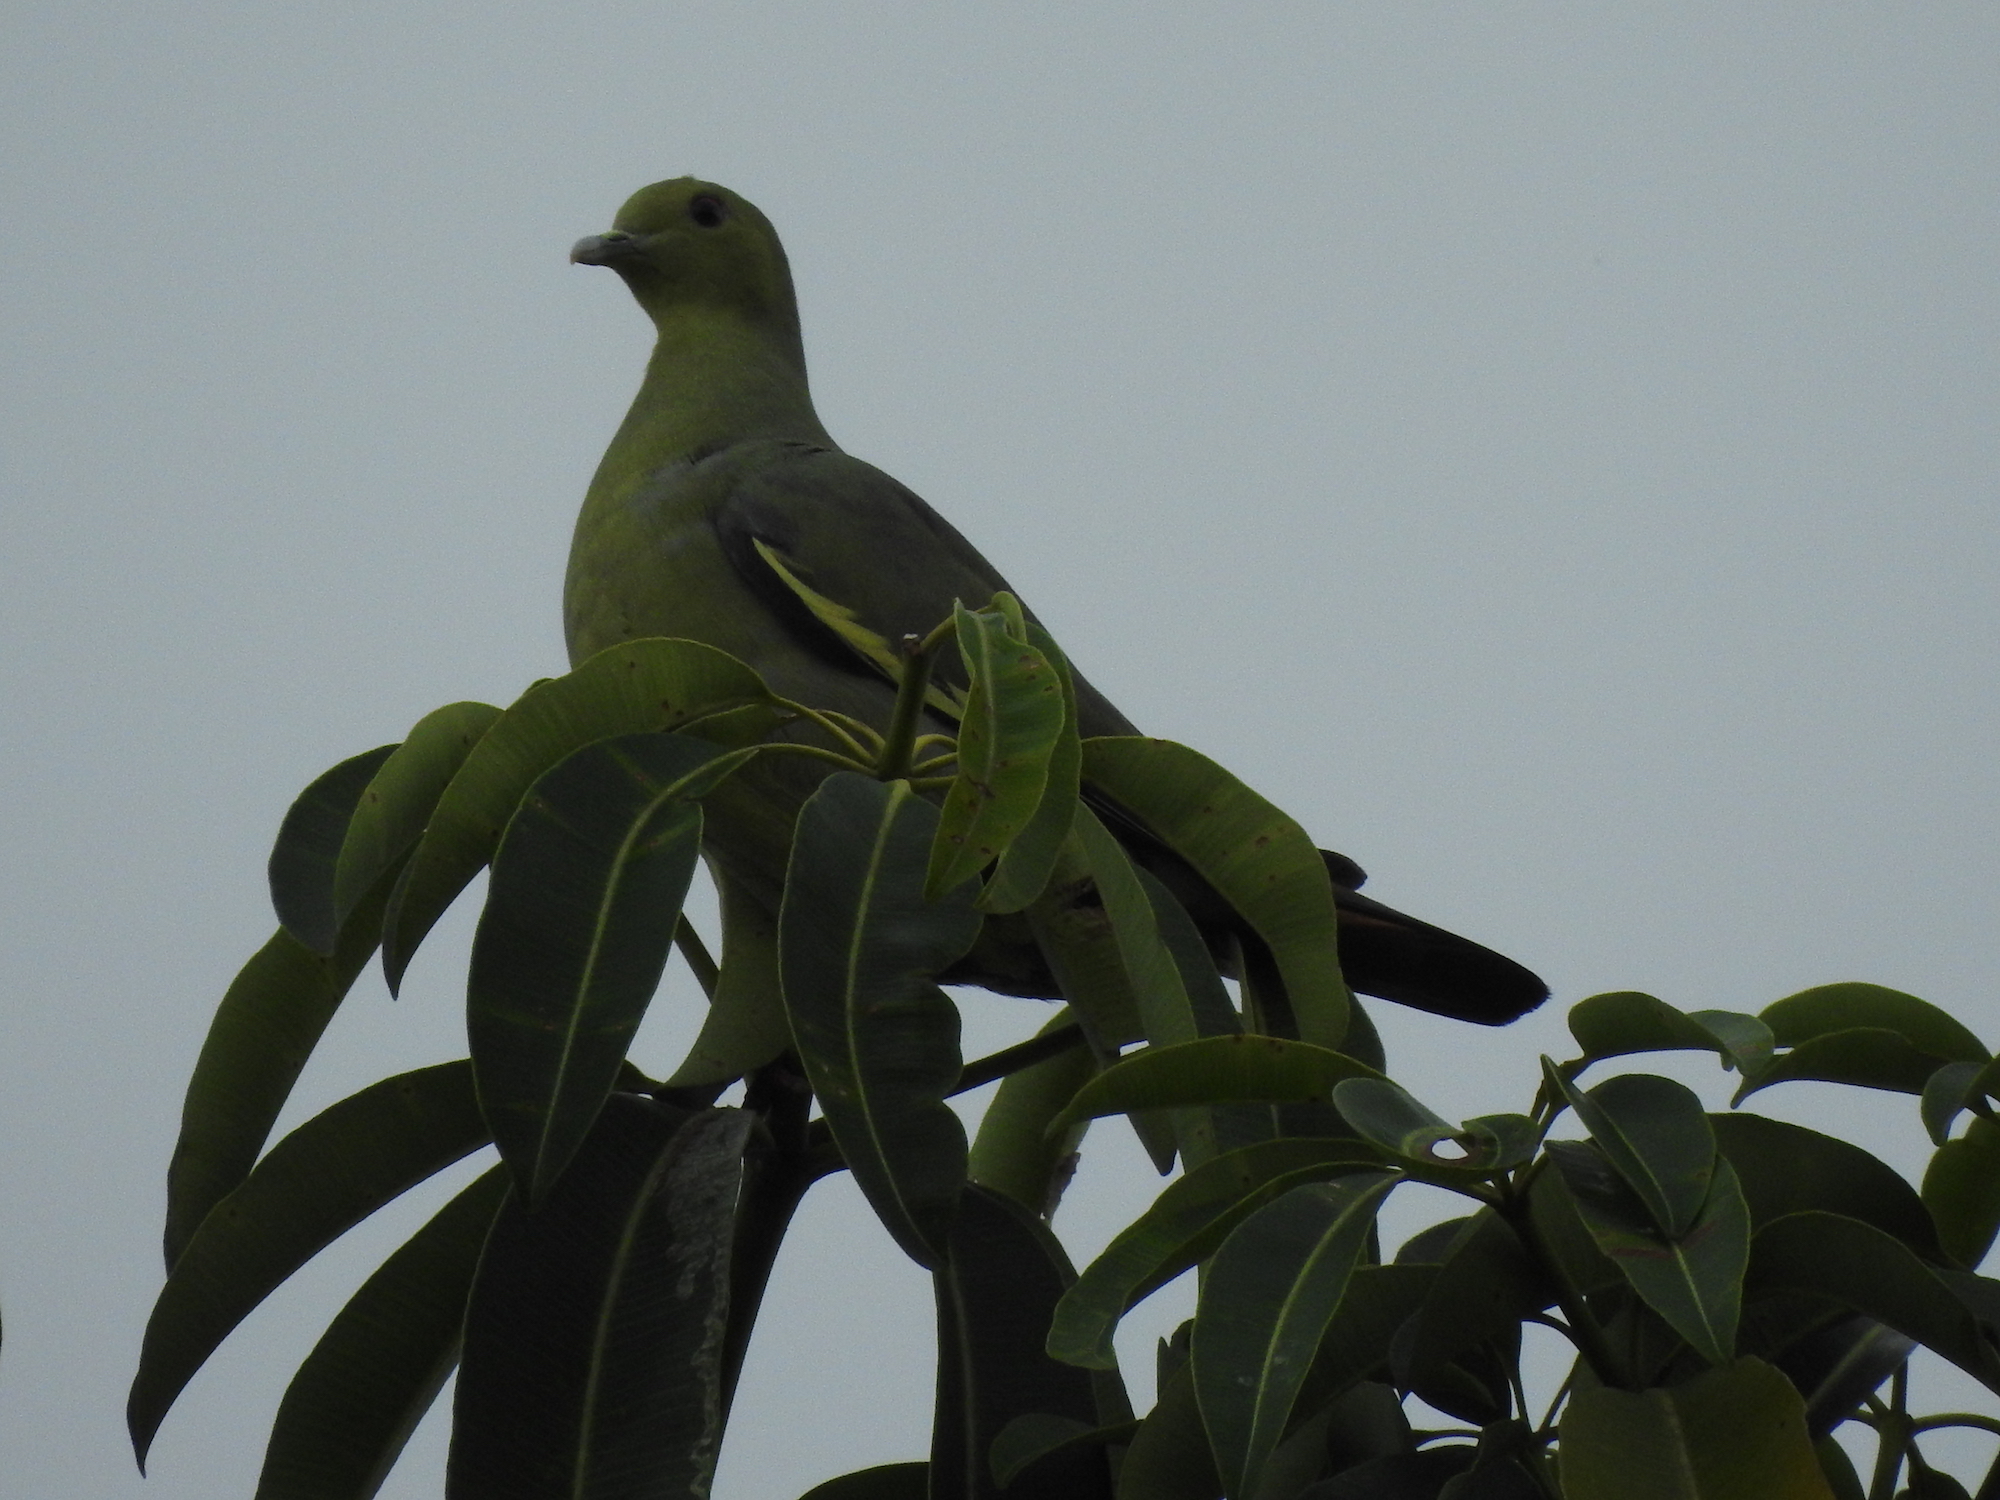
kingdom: Animalia
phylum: Chordata
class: Aves
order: Columbiformes
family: Columbidae
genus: Treron
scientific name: Treron vernans
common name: Pink-necked green pigeon
